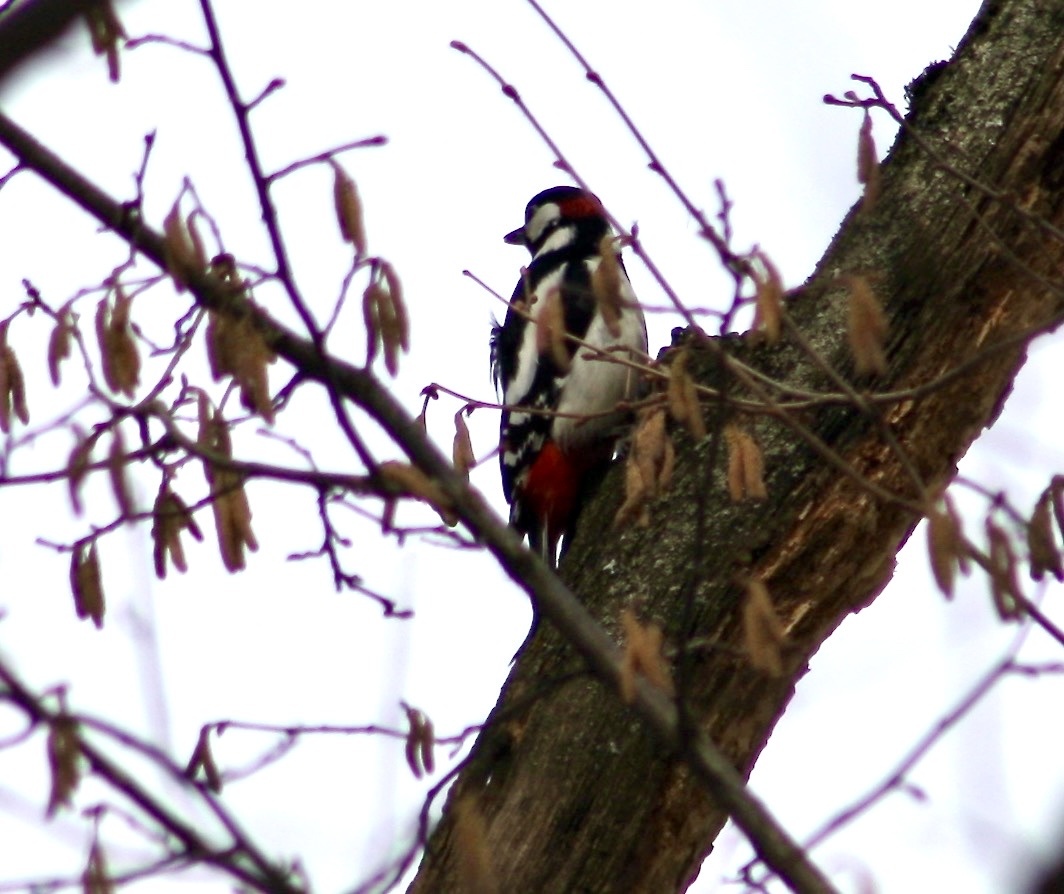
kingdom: Animalia
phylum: Chordata
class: Aves
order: Piciformes
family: Picidae
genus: Dendrocopos
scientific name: Dendrocopos major
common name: Great spotted woodpecker
